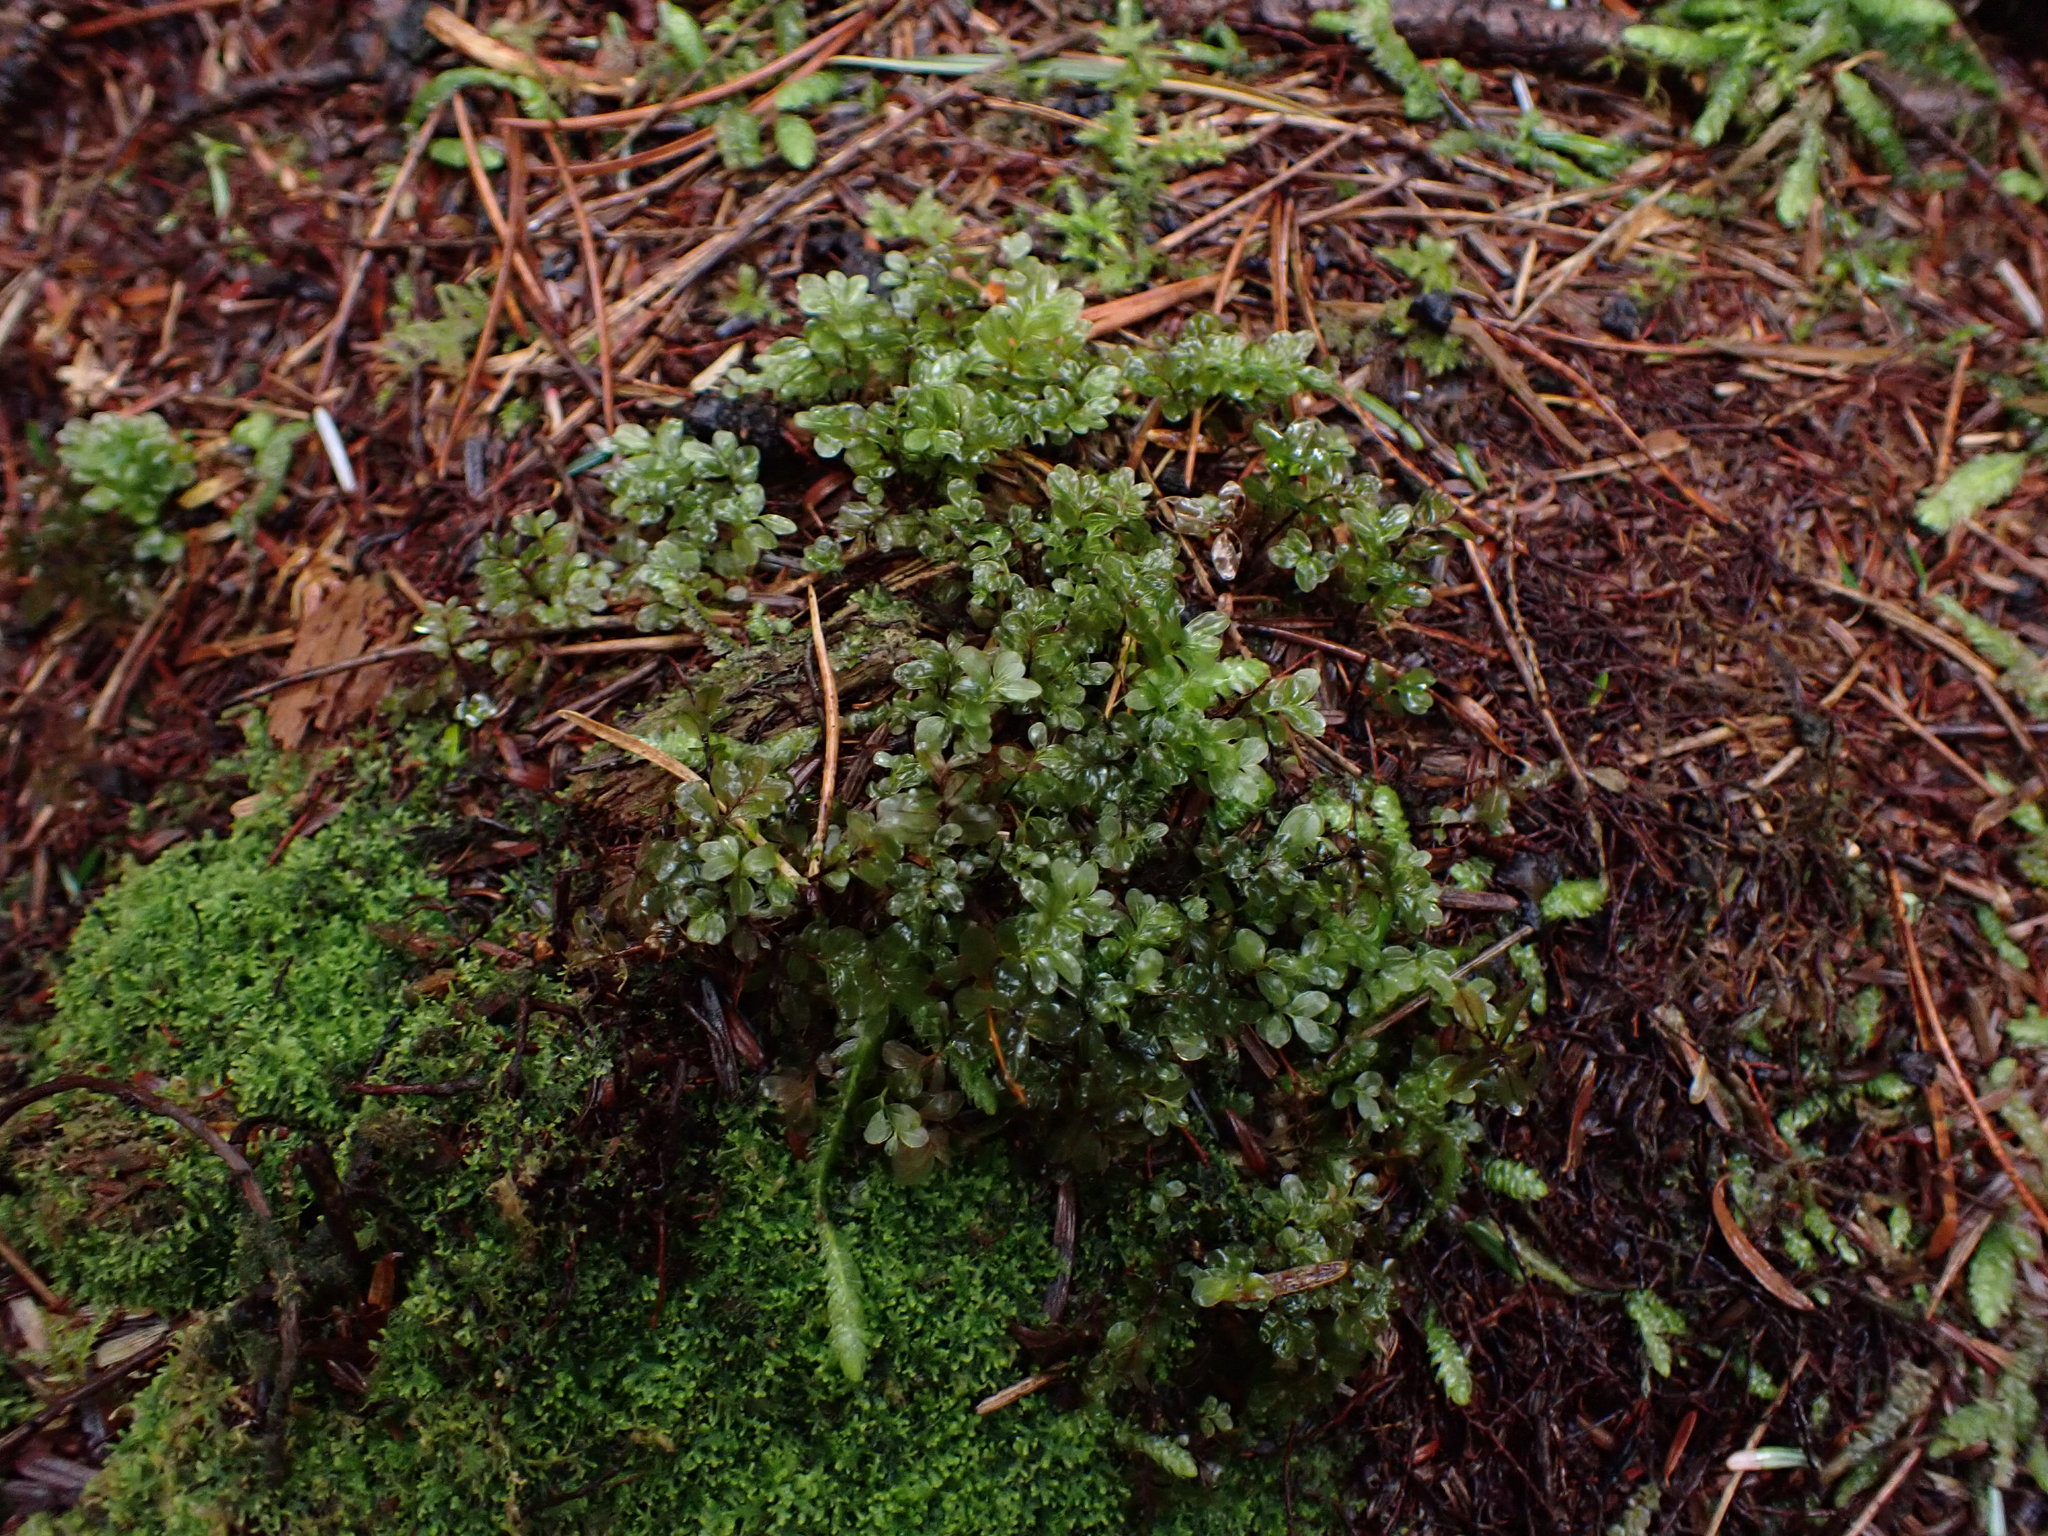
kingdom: Plantae
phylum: Bryophyta
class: Bryopsida
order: Bryales
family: Mniaceae
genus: Rhizomnium
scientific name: Rhizomnium glabrescens
